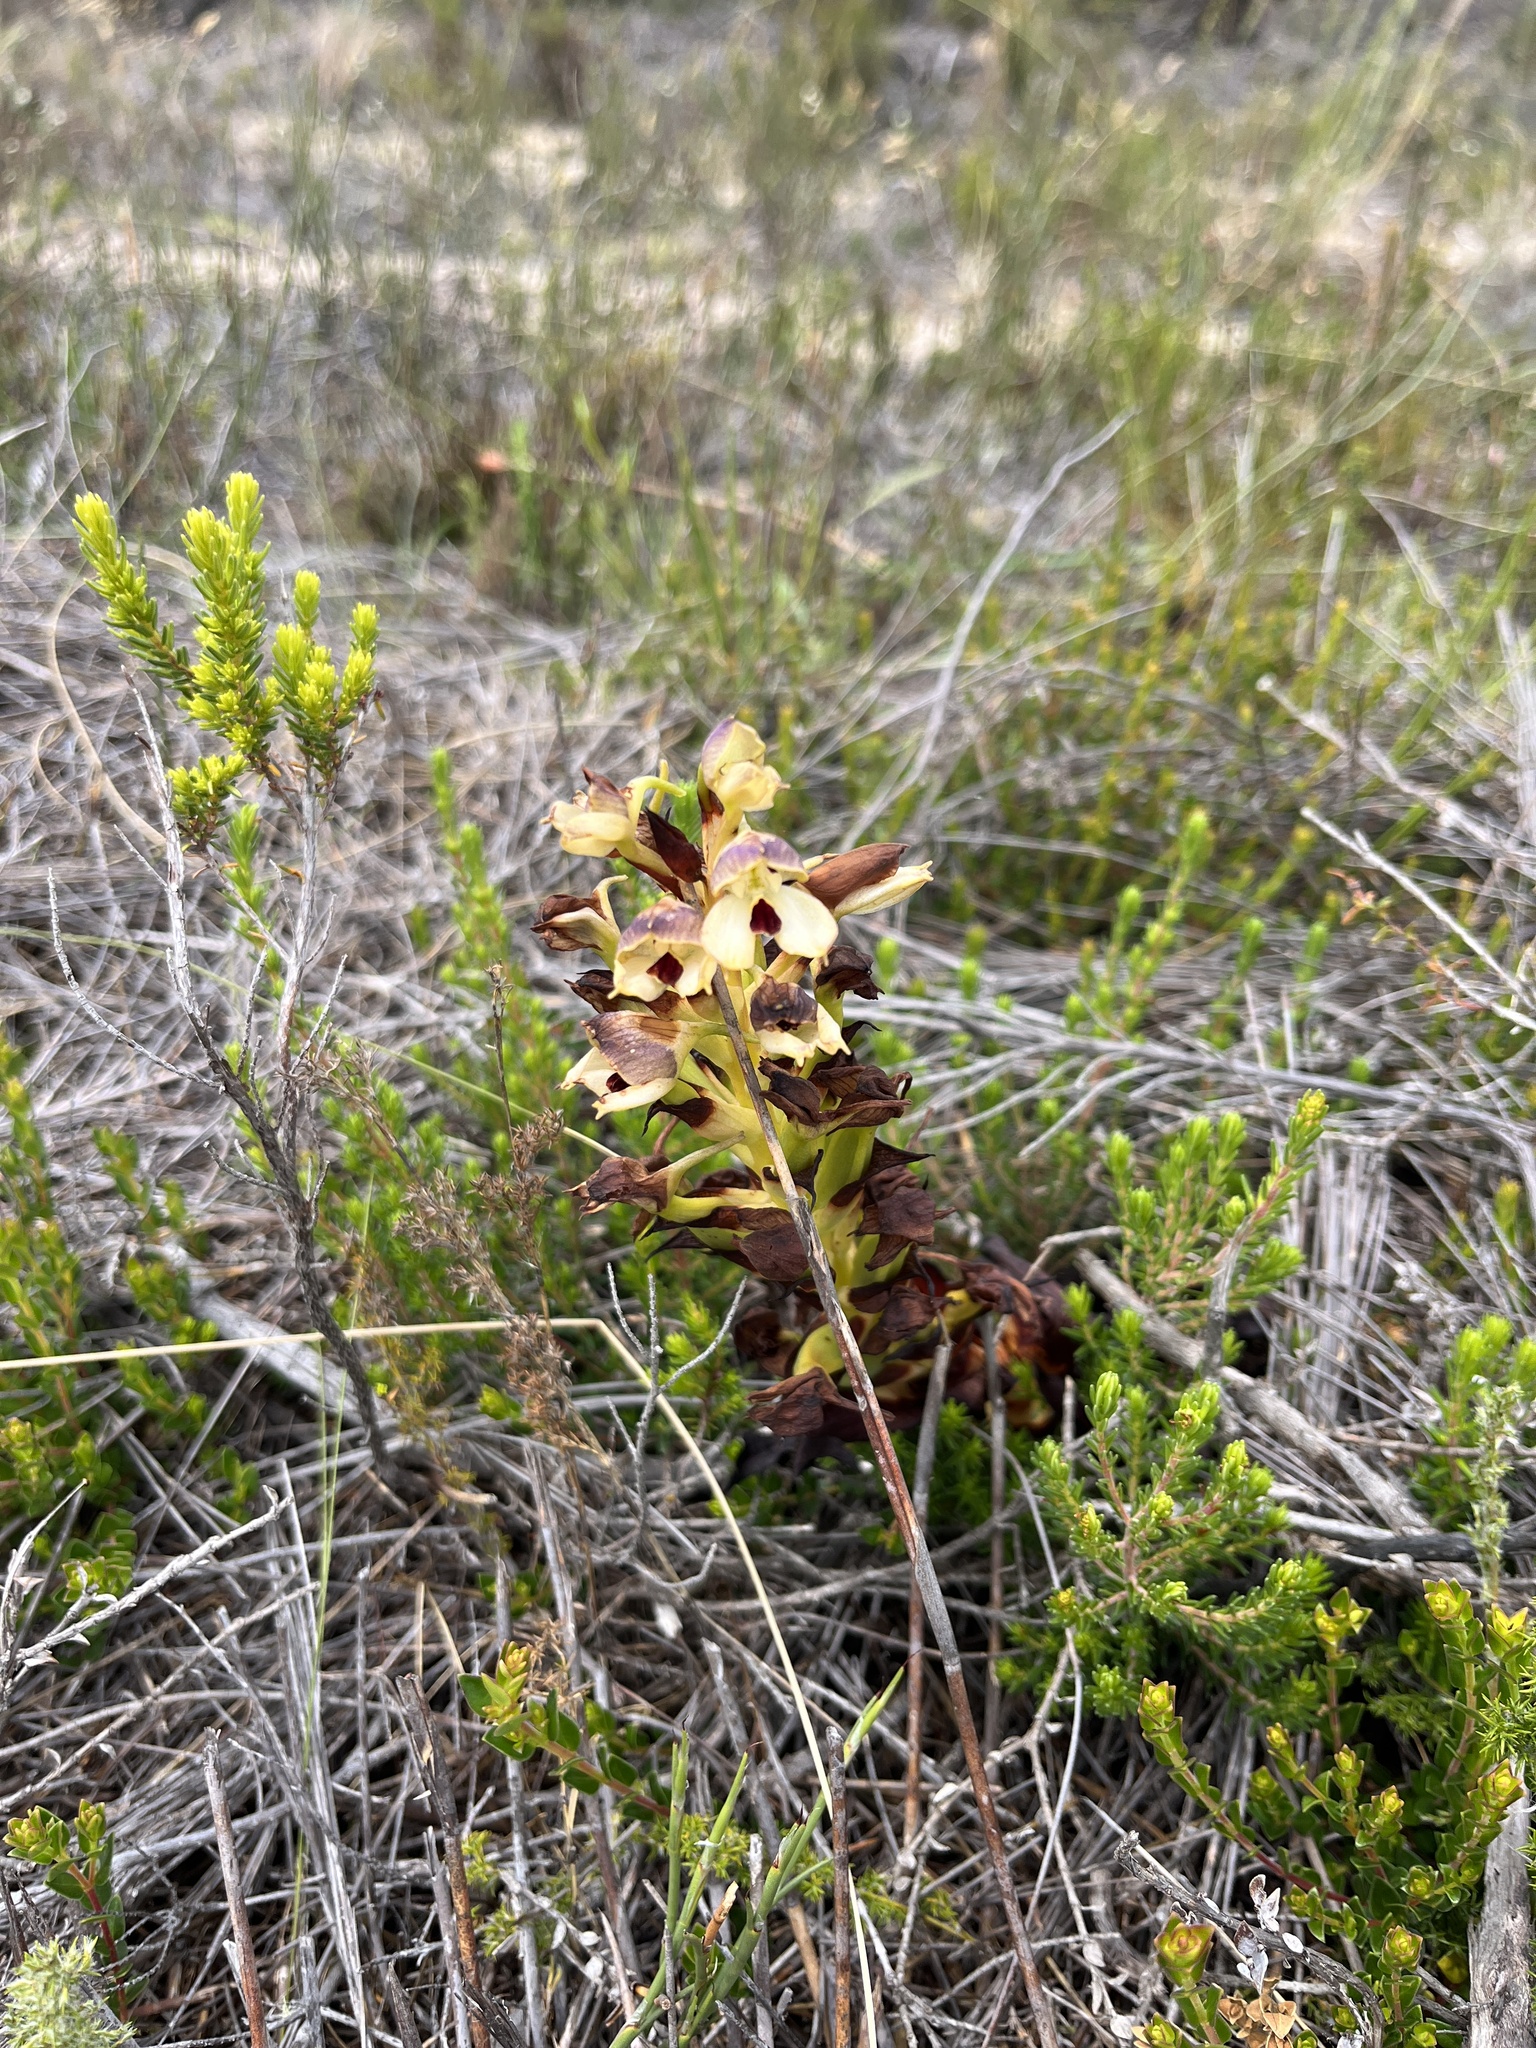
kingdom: Plantae
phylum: Tracheophyta
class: Liliopsida
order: Asparagales
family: Orchidaceae
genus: Disa
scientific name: Disa cornuta
